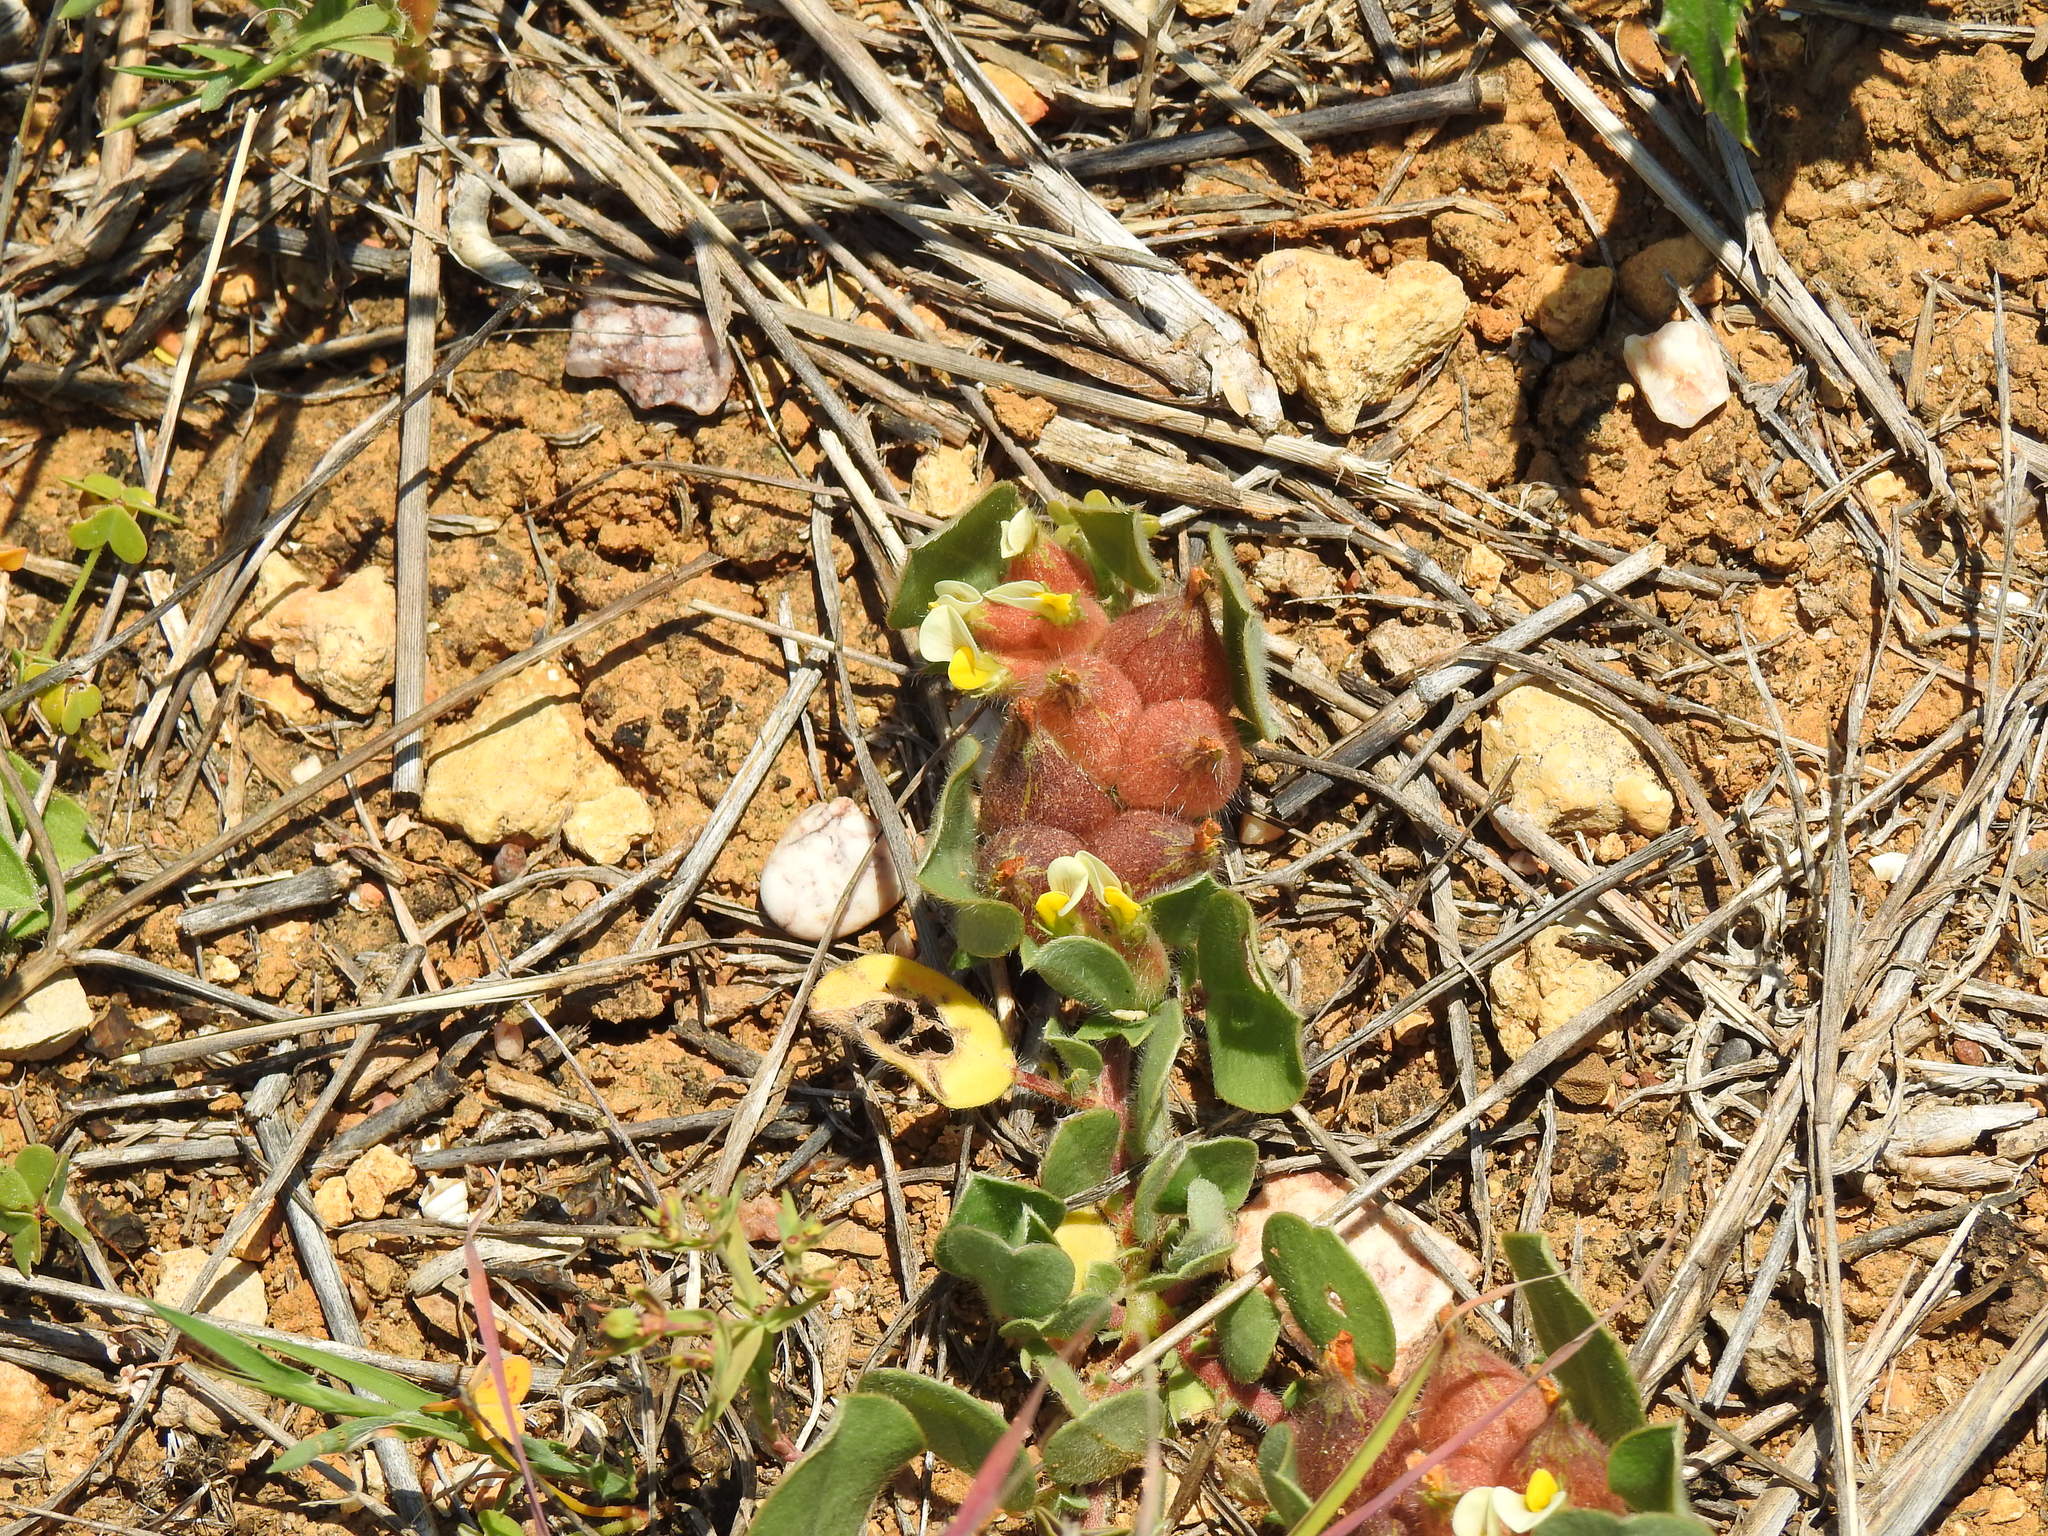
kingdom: Plantae
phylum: Tracheophyta
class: Magnoliopsida
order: Fabales
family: Fabaceae
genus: Tripodion
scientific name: Tripodion tetraphyllum
